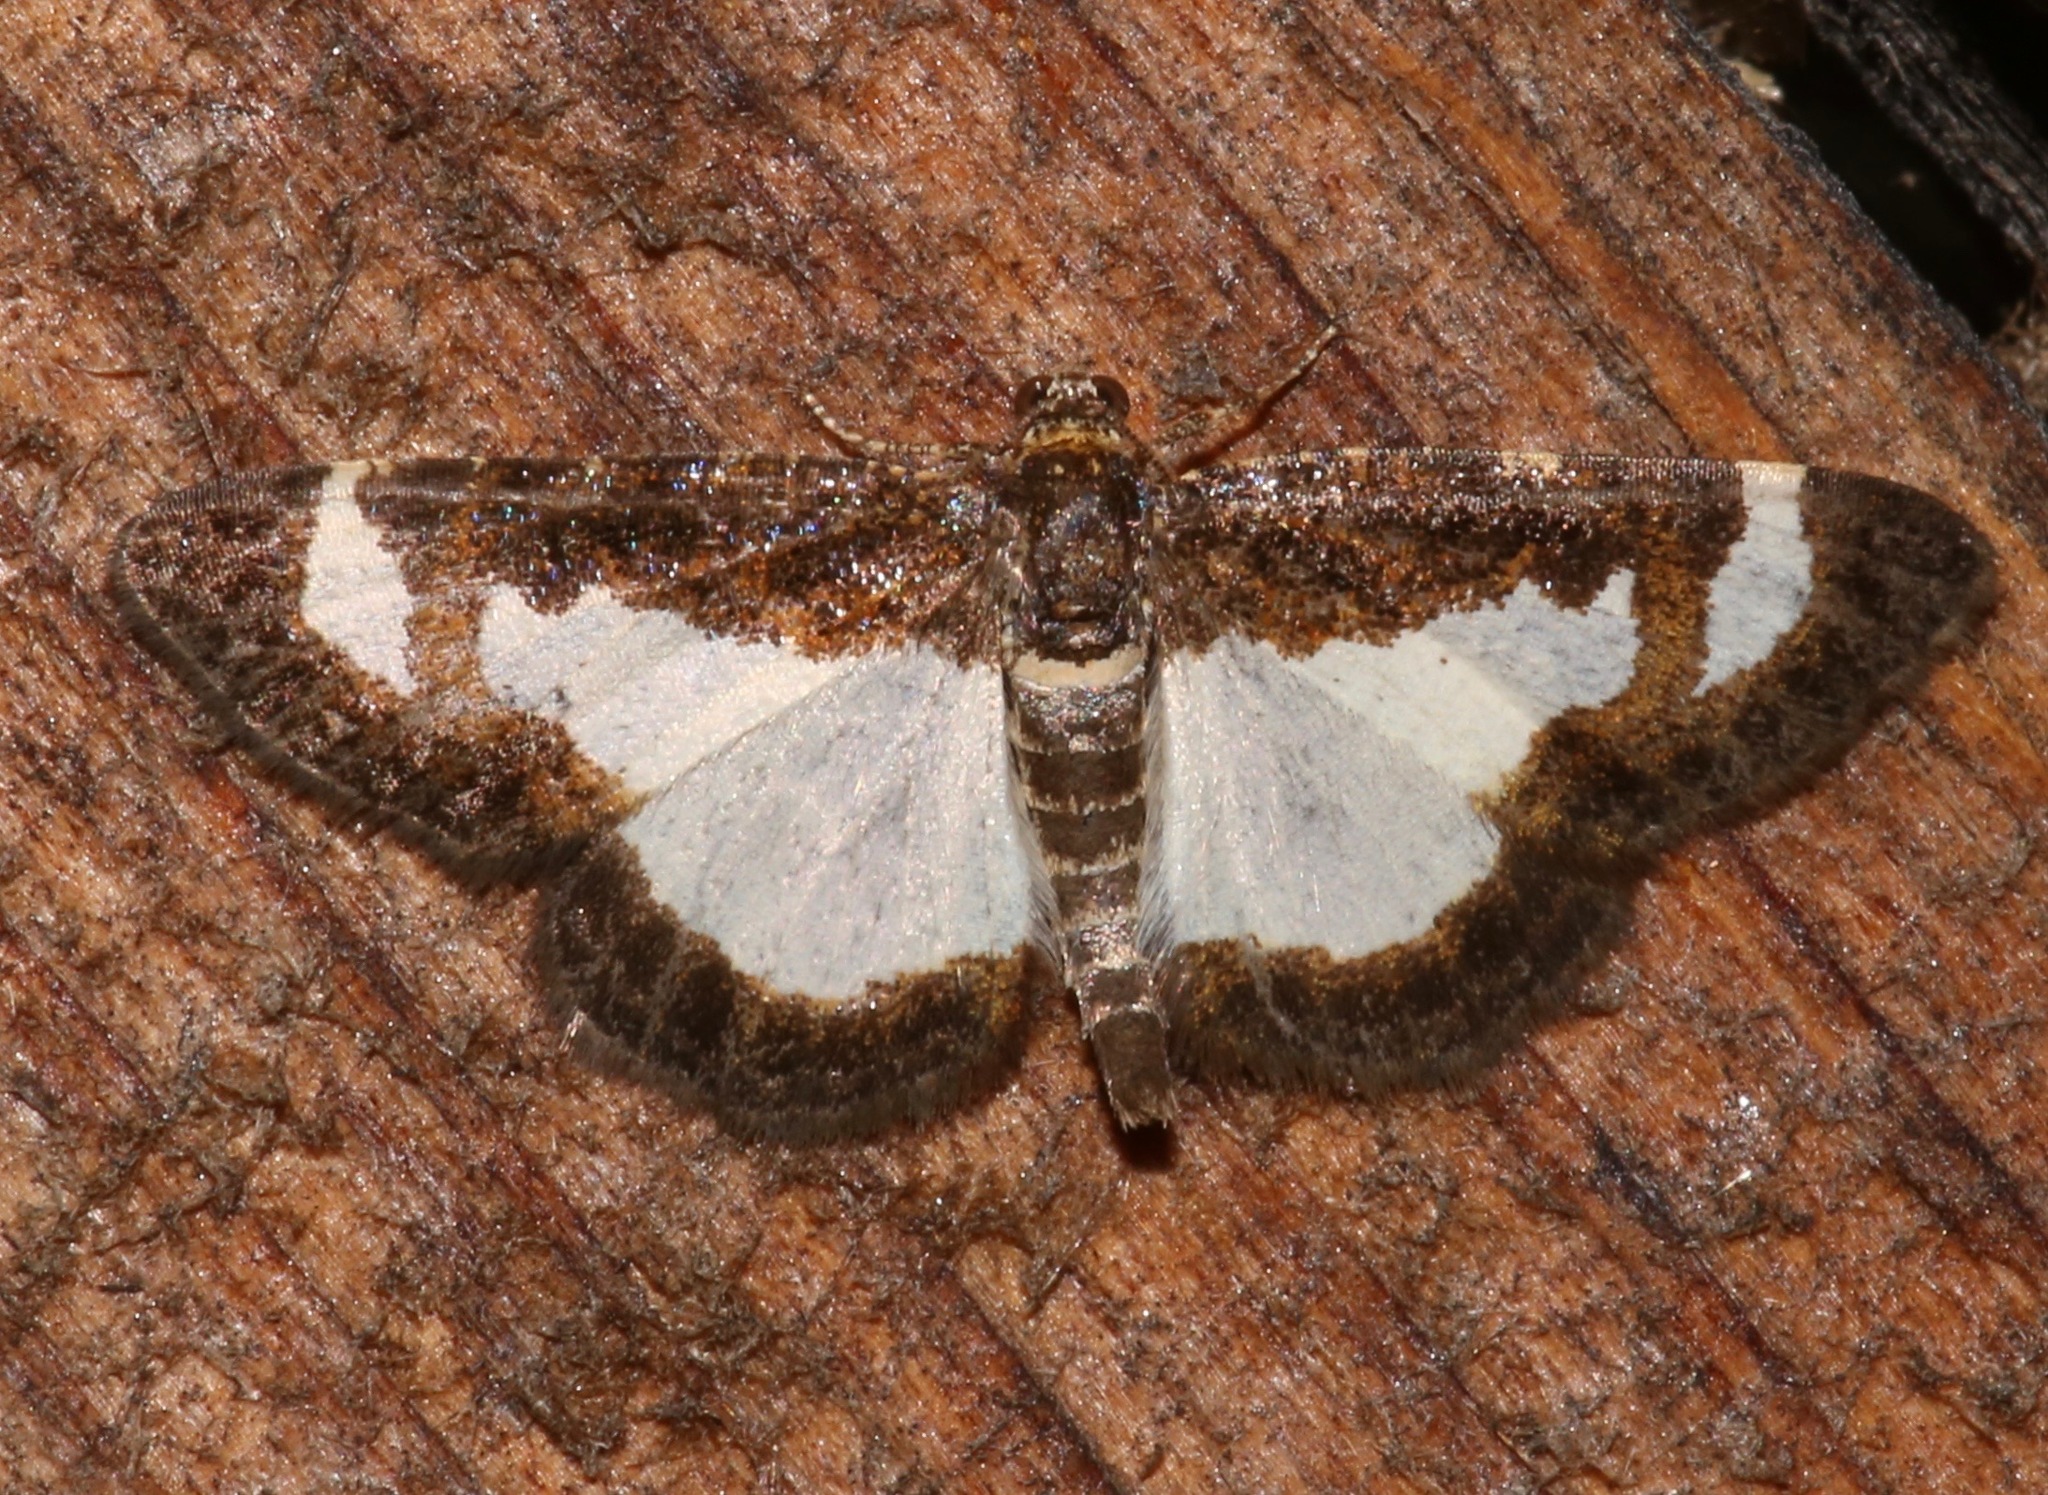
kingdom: Animalia
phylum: Arthropoda
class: Insecta
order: Lepidoptera
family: Geometridae
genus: Heliomata
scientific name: Heliomata cycladata
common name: Common spring moth
